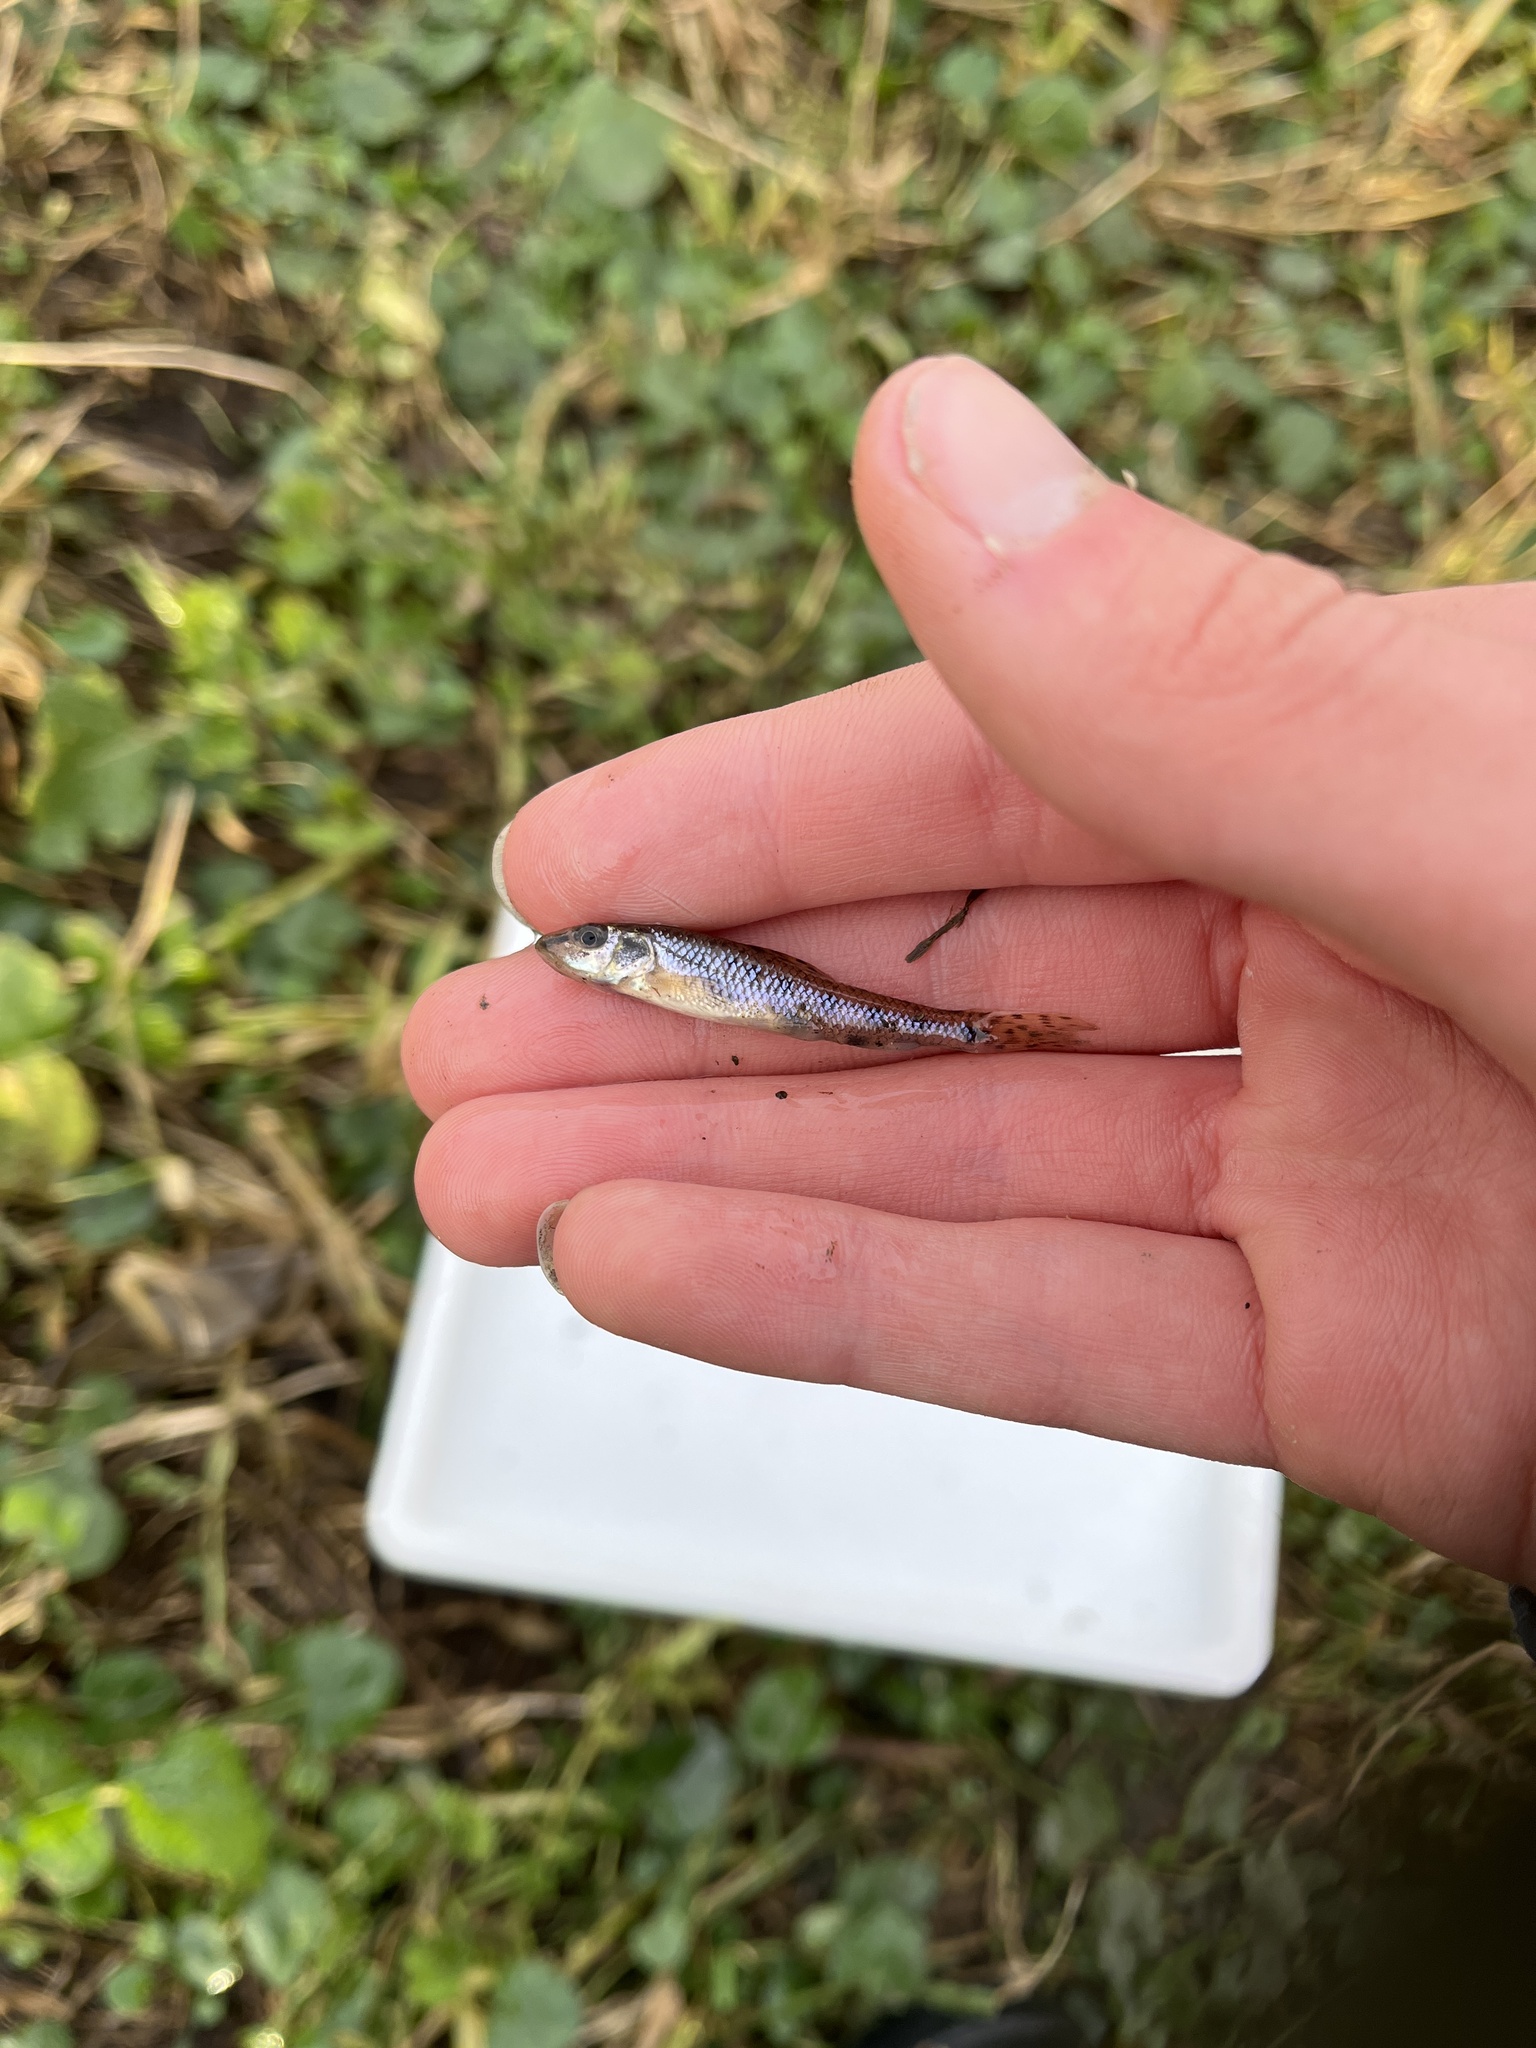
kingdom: Animalia
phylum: Chordata
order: Cypriniformes
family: Cyprinidae
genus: Gobio
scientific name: Gobio gobio
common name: Gudgeon
